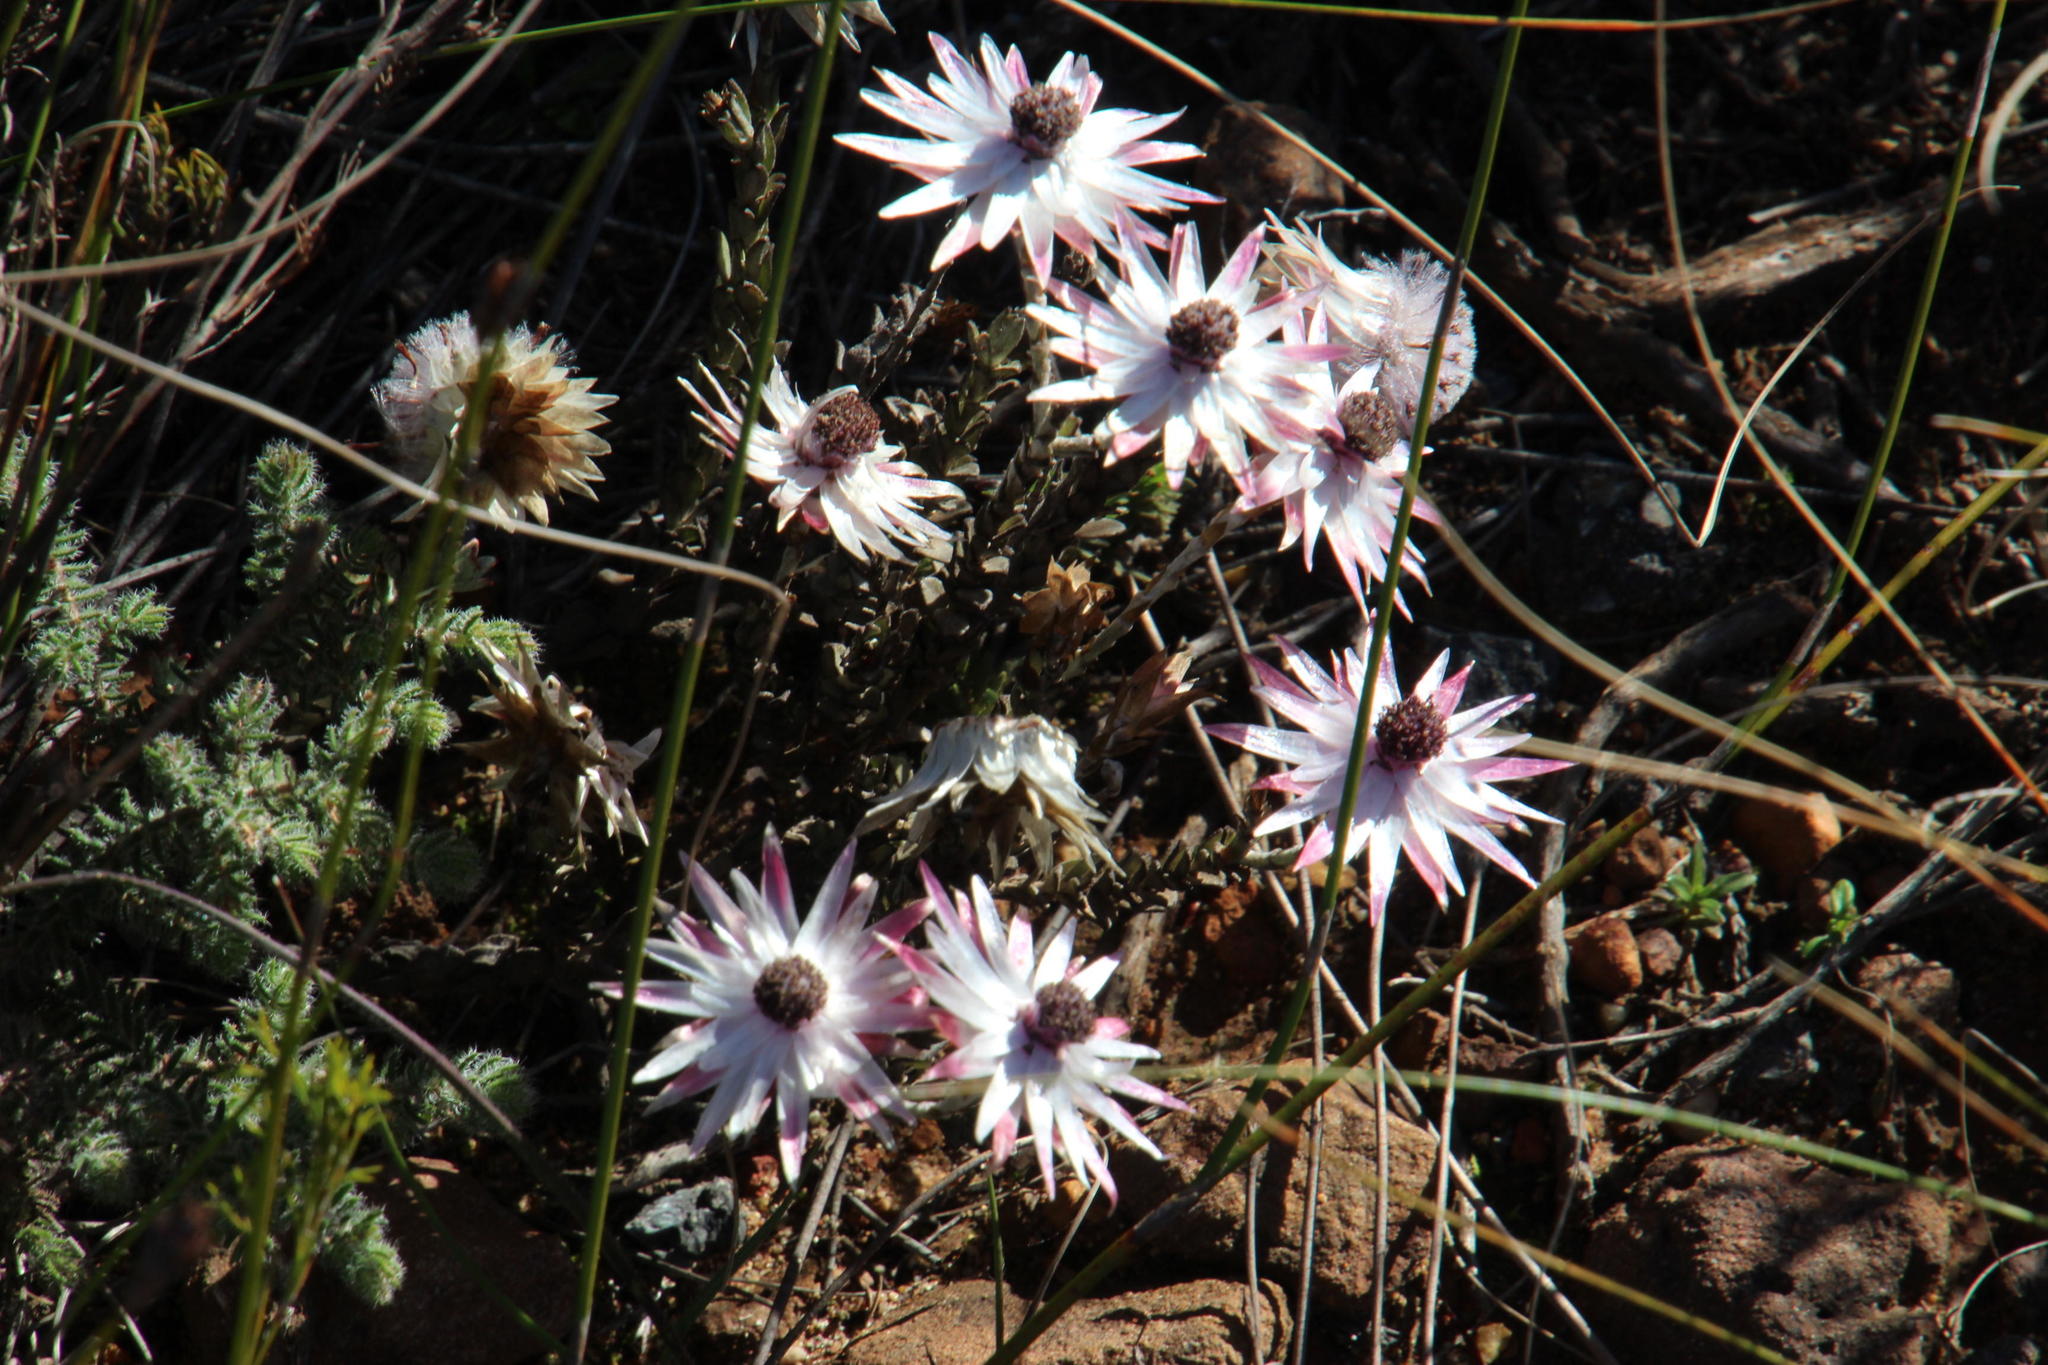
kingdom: Plantae
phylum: Tracheophyta
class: Magnoliopsida
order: Asterales
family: Asteraceae
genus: Syncarpha
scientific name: Syncarpha canescens
